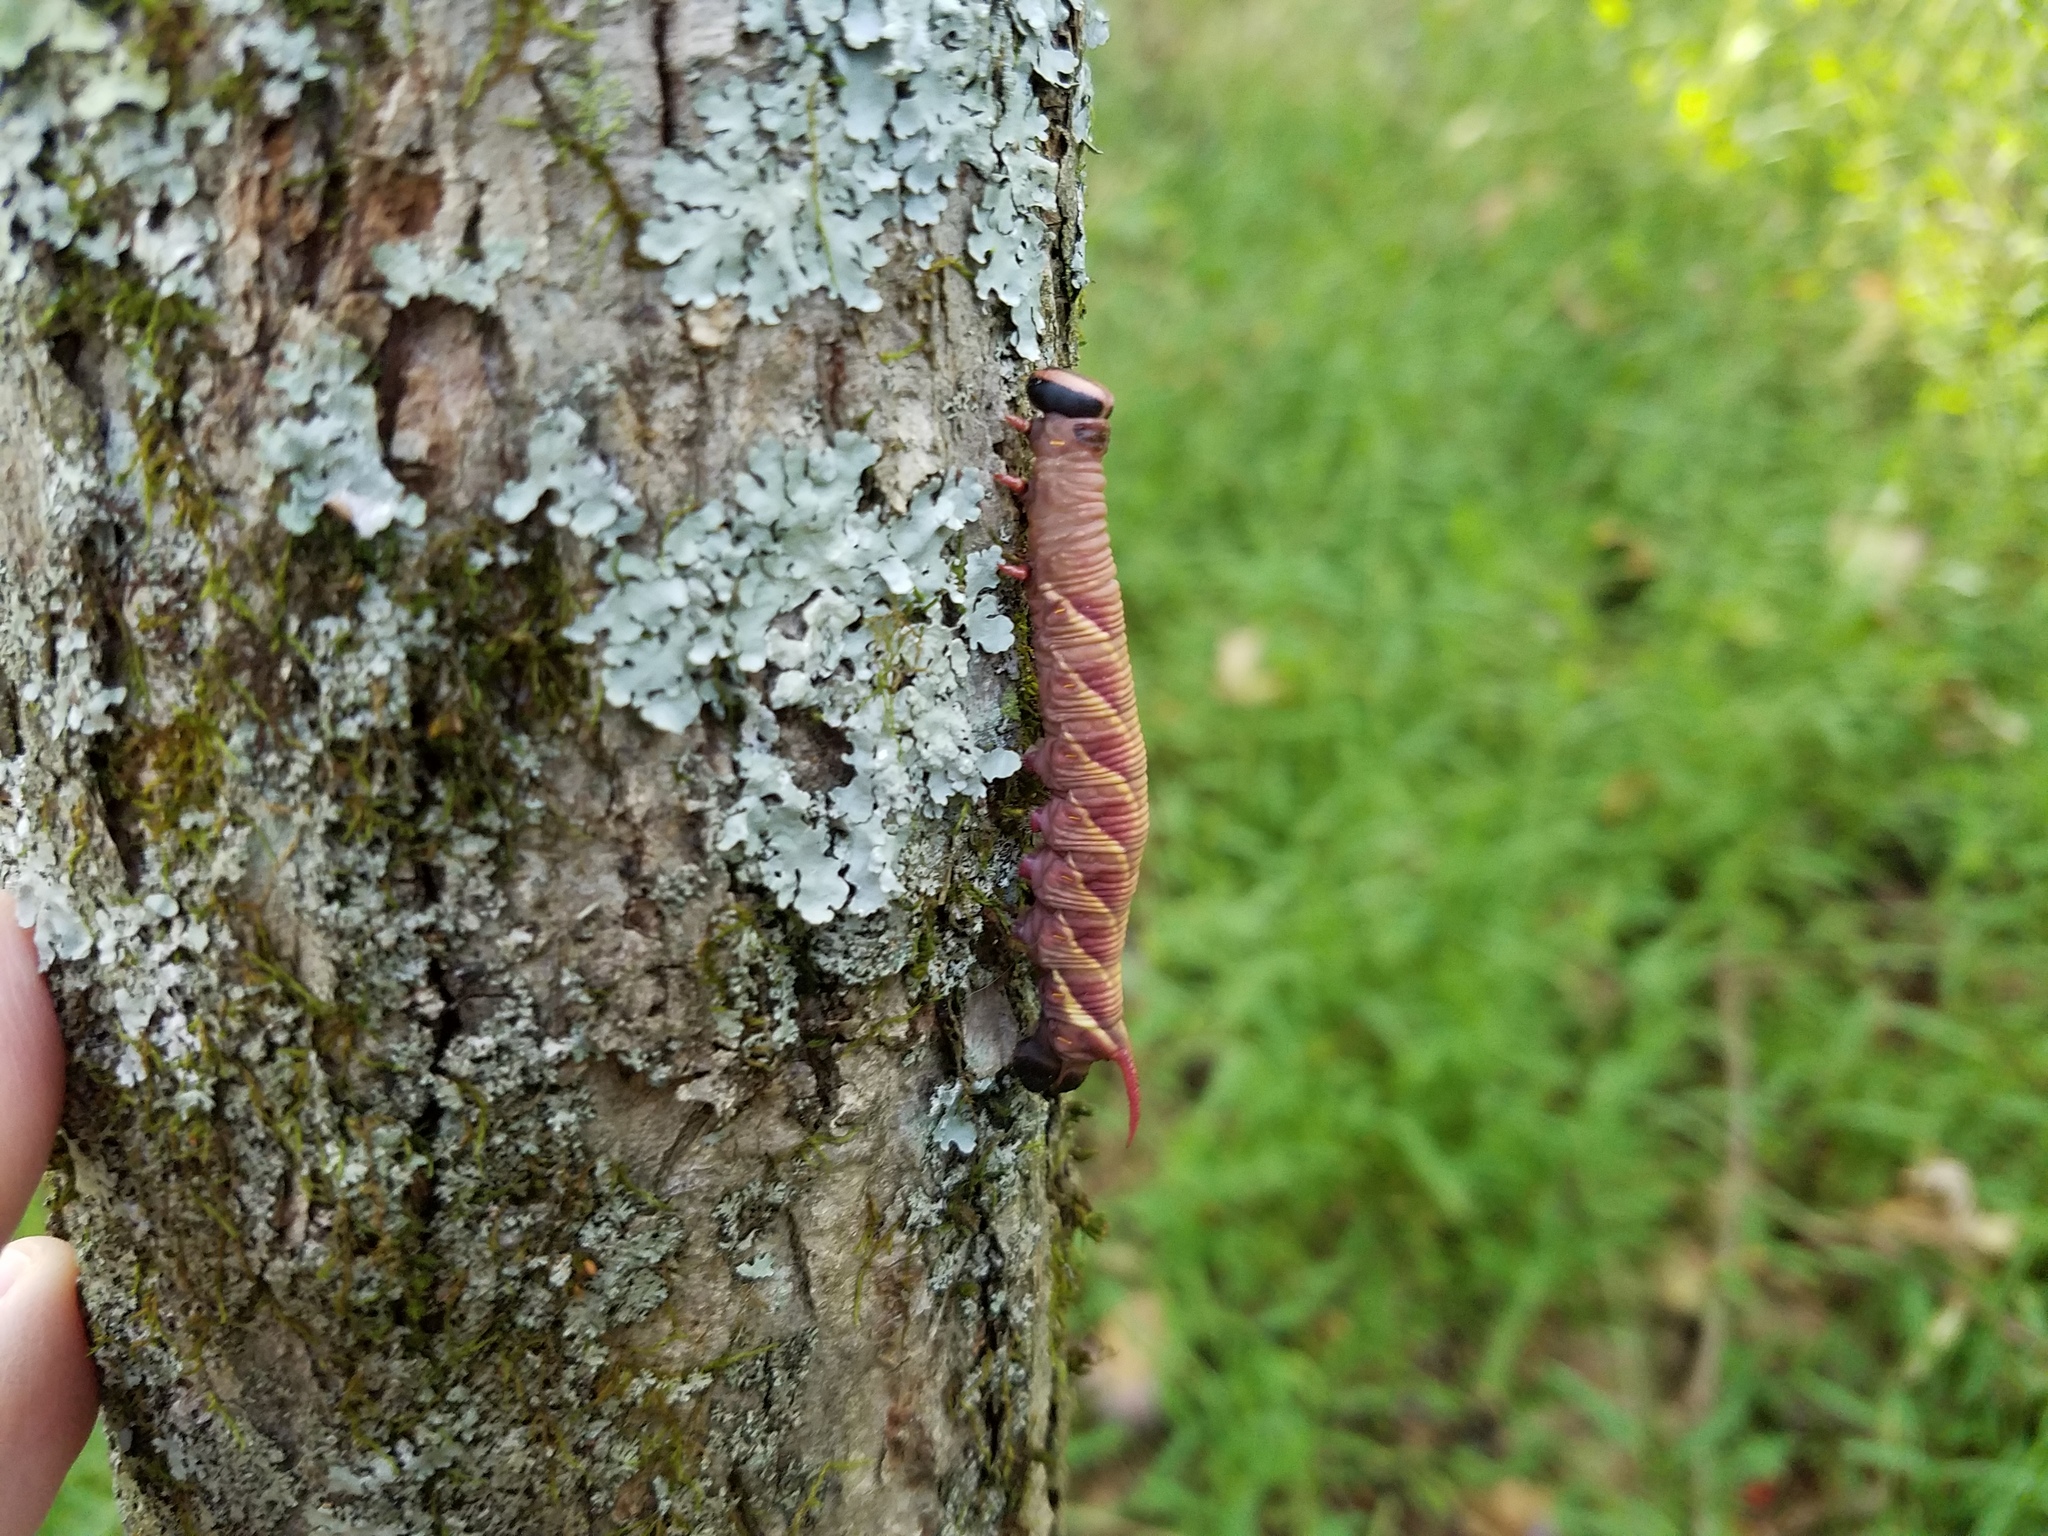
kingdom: Animalia
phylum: Arthropoda
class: Insecta
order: Lepidoptera
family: Sphingidae
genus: Ceratomia
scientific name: Ceratomia undulosa
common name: Waved sphinx
